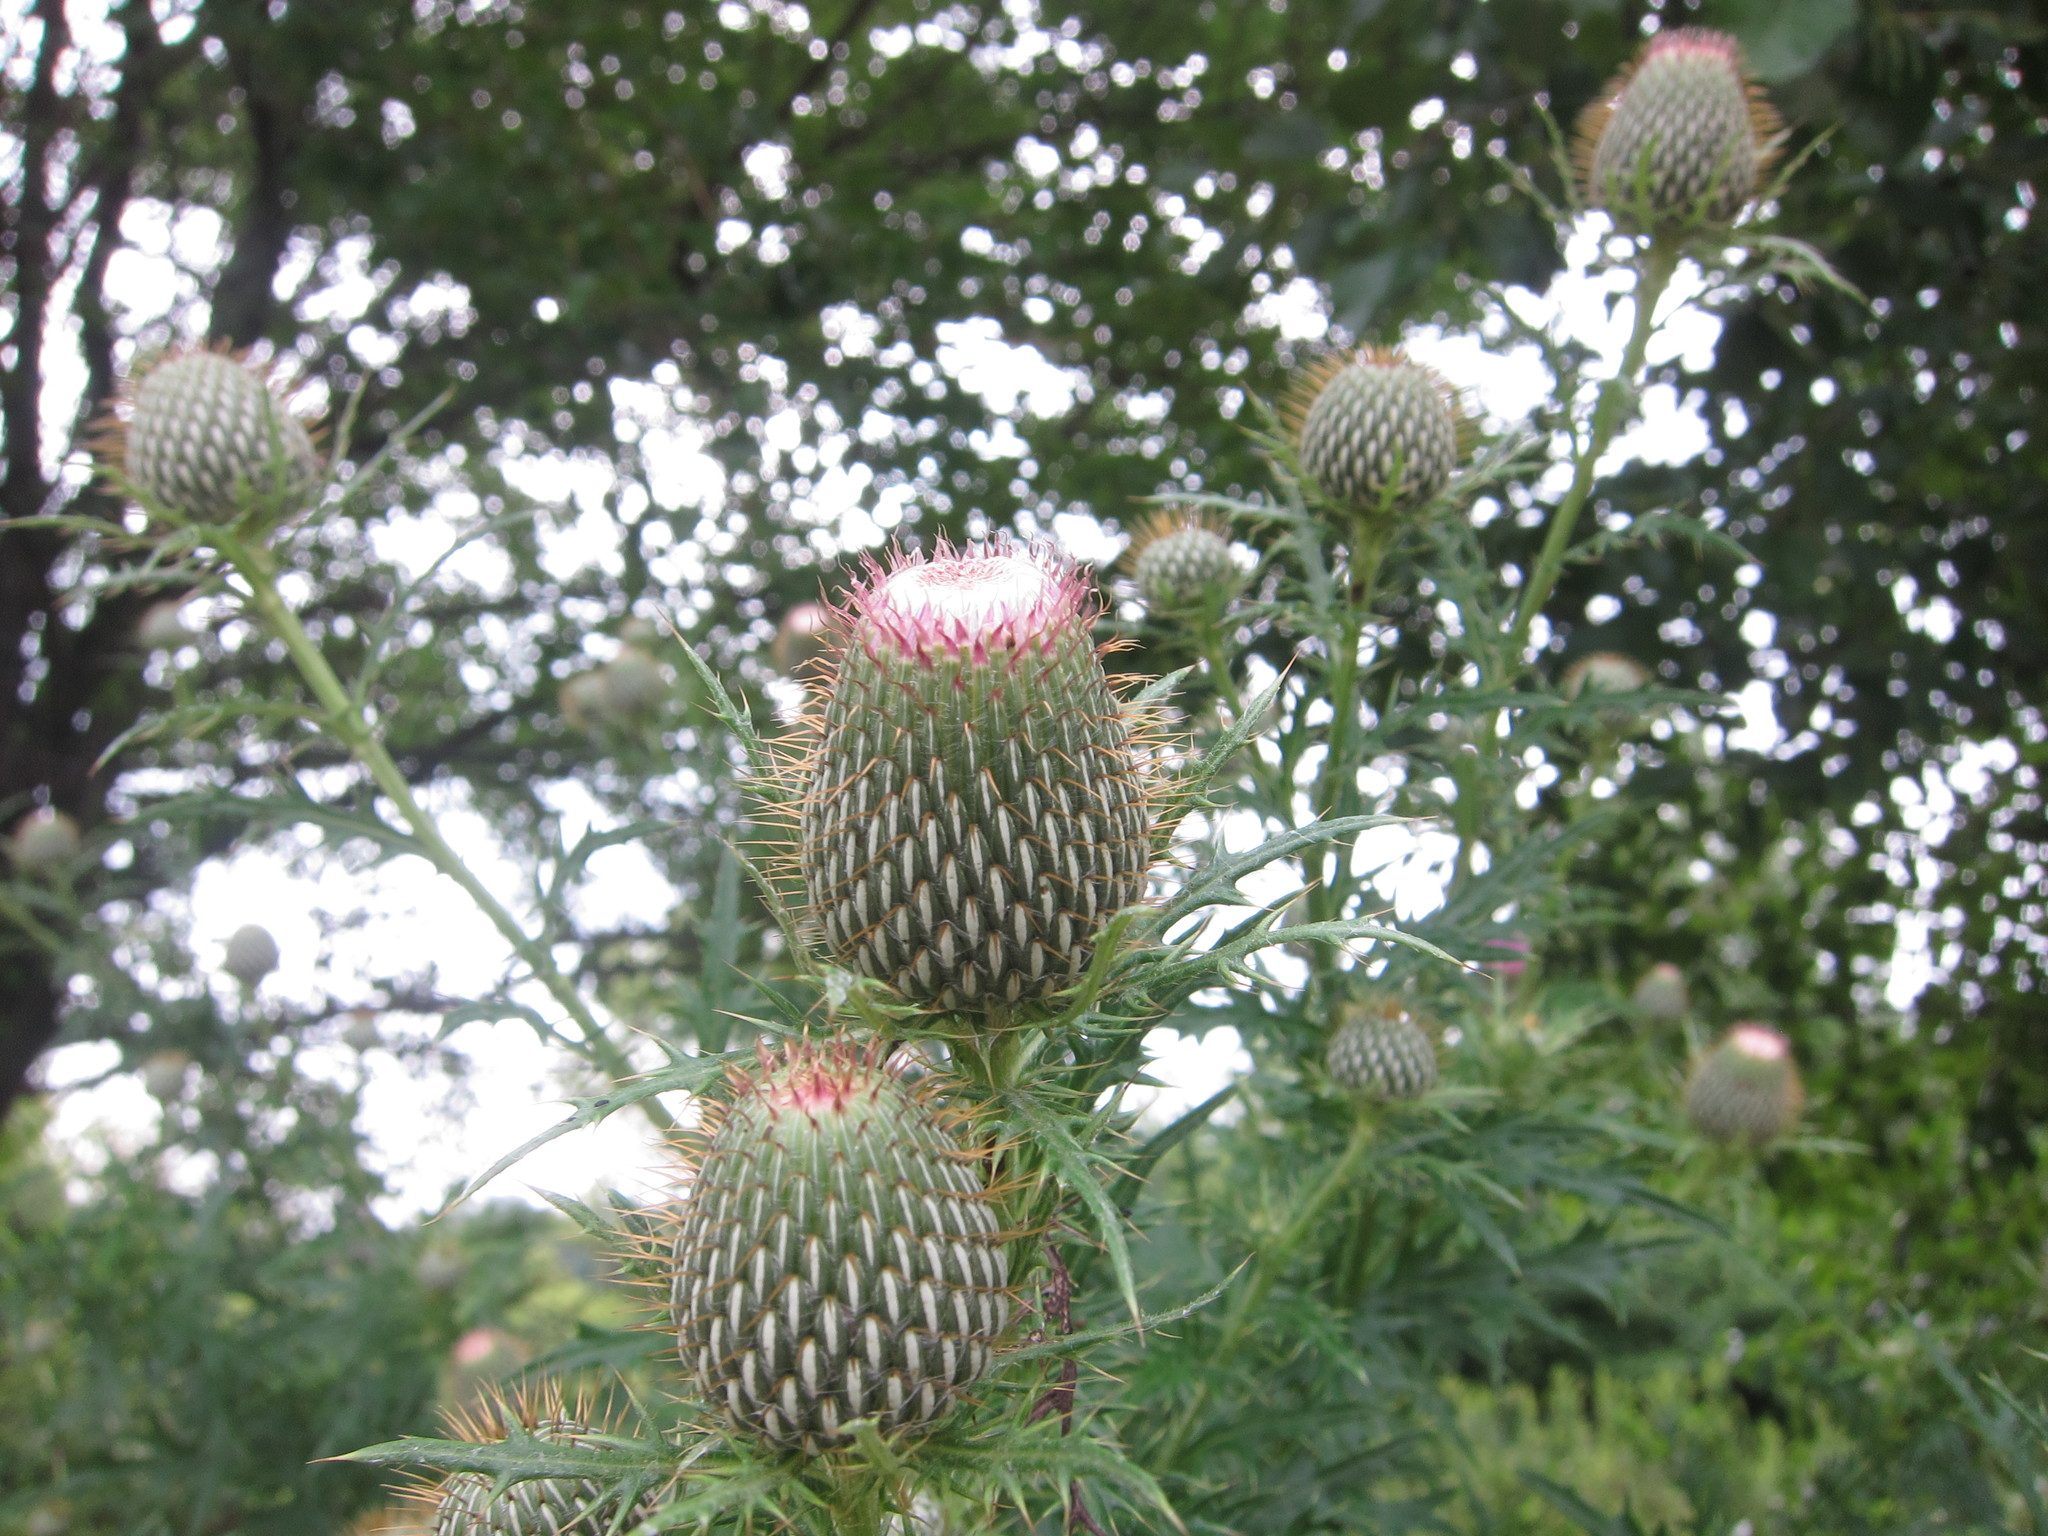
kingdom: Plantae
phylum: Tracheophyta
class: Magnoliopsida
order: Asterales
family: Asteraceae
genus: Cirsium
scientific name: Cirsium discolor
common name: Field thistle
